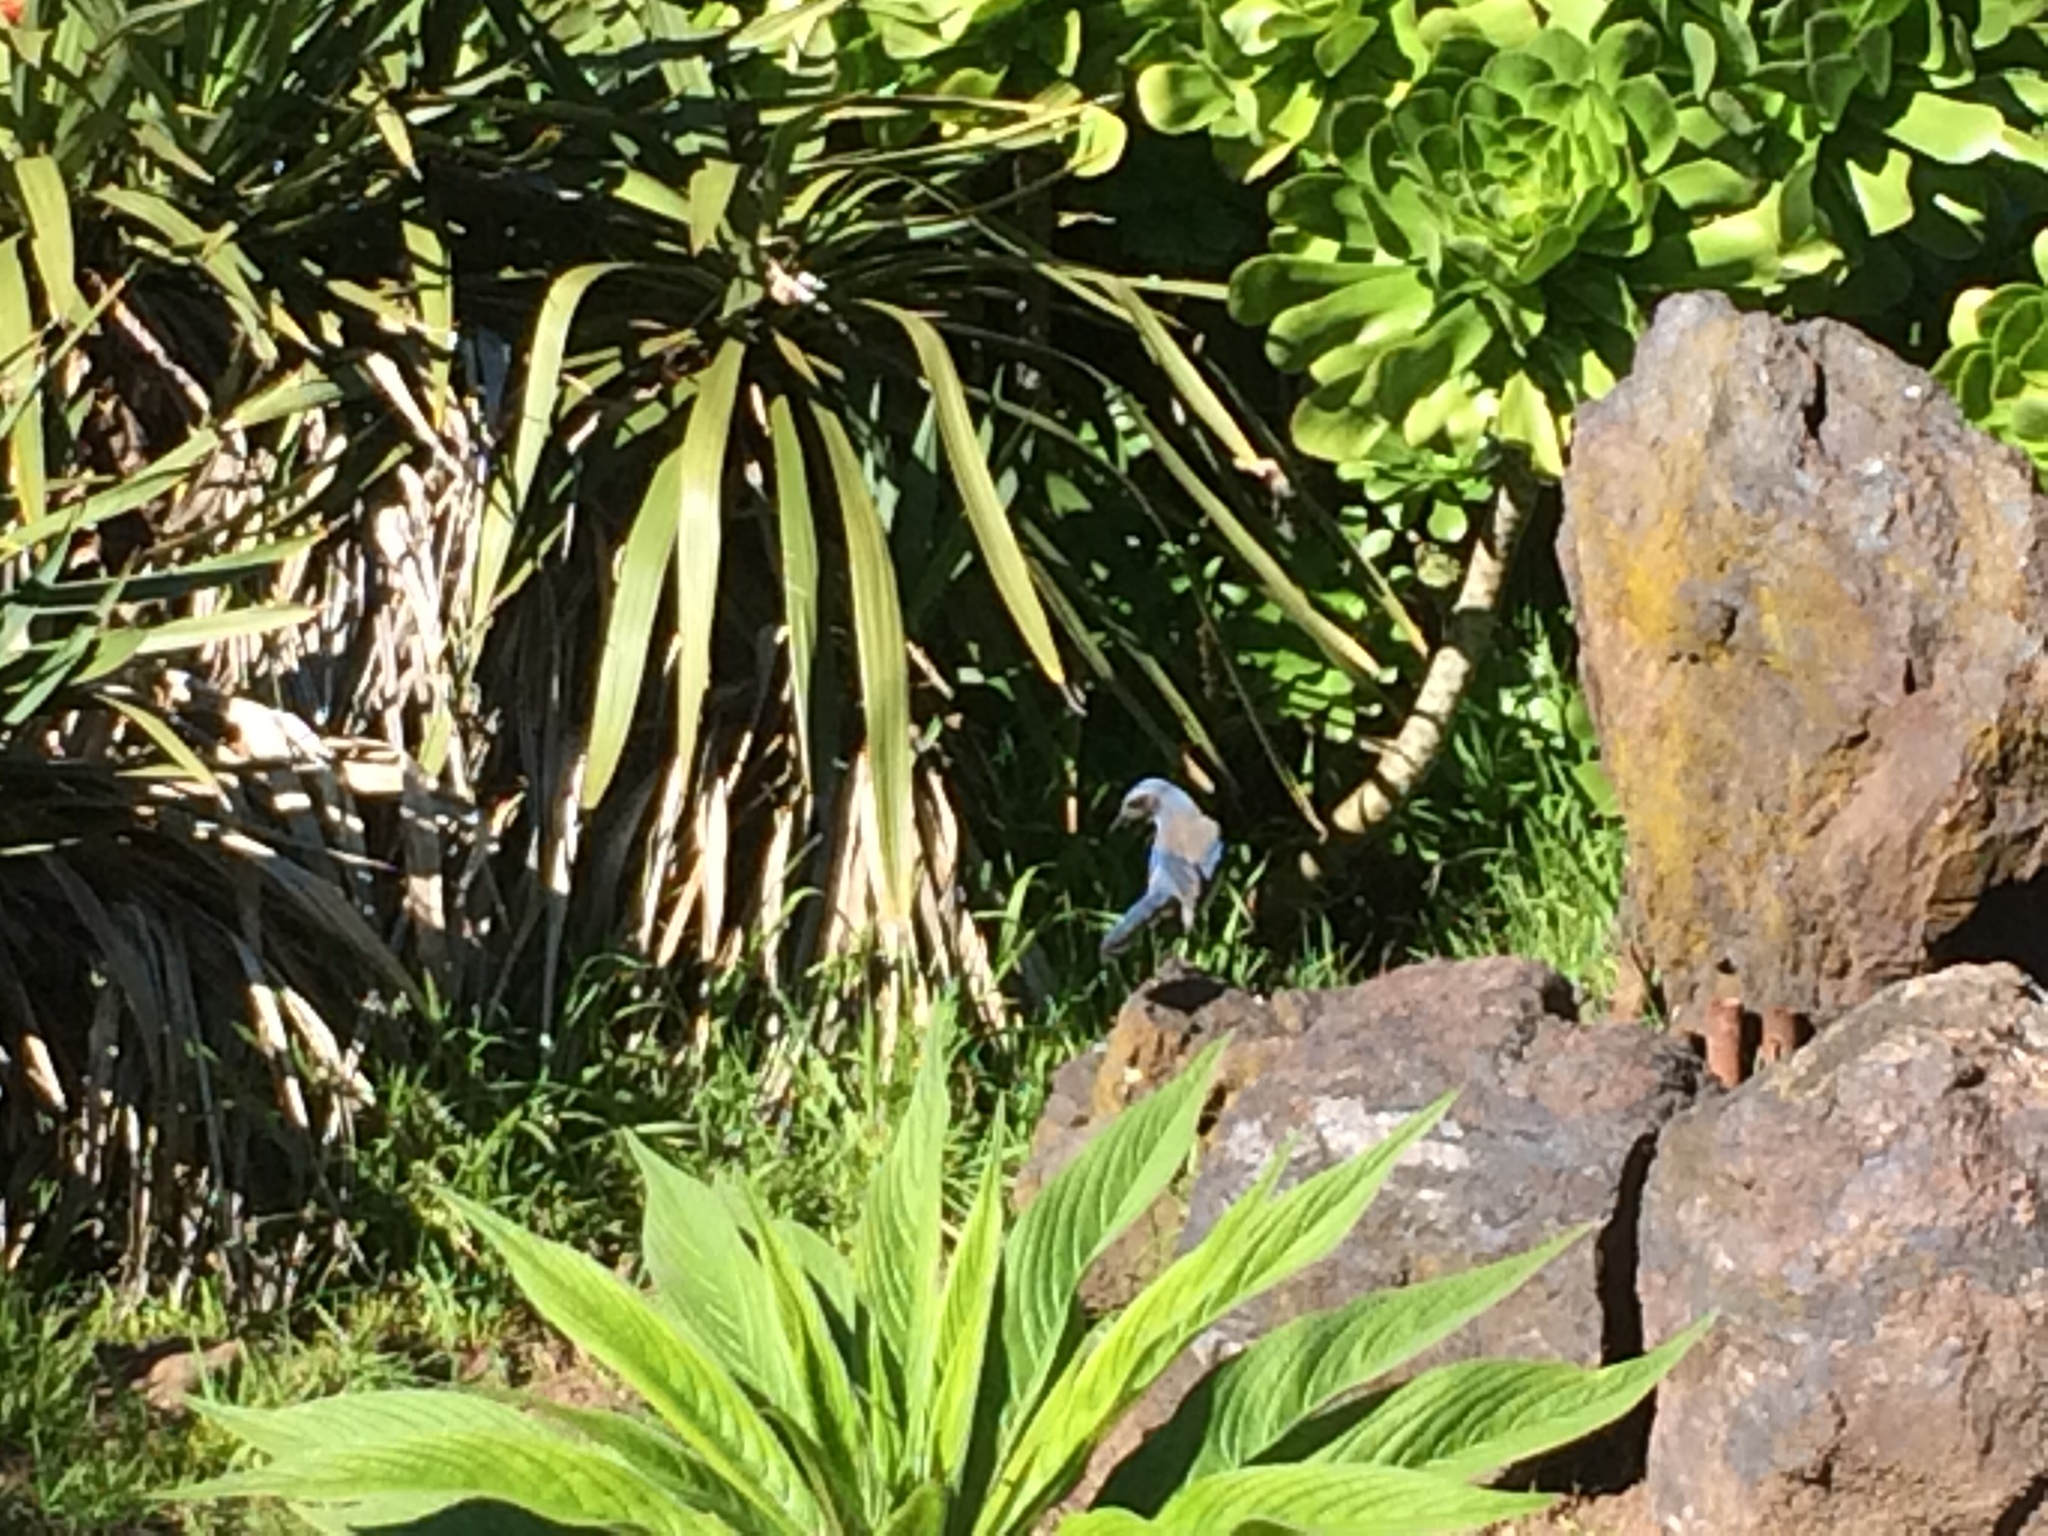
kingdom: Animalia
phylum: Chordata
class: Aves
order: Passeriformes
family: Corvidae
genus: Aphelocoma
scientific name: Aphelocoma californica
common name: California scrub-jay
